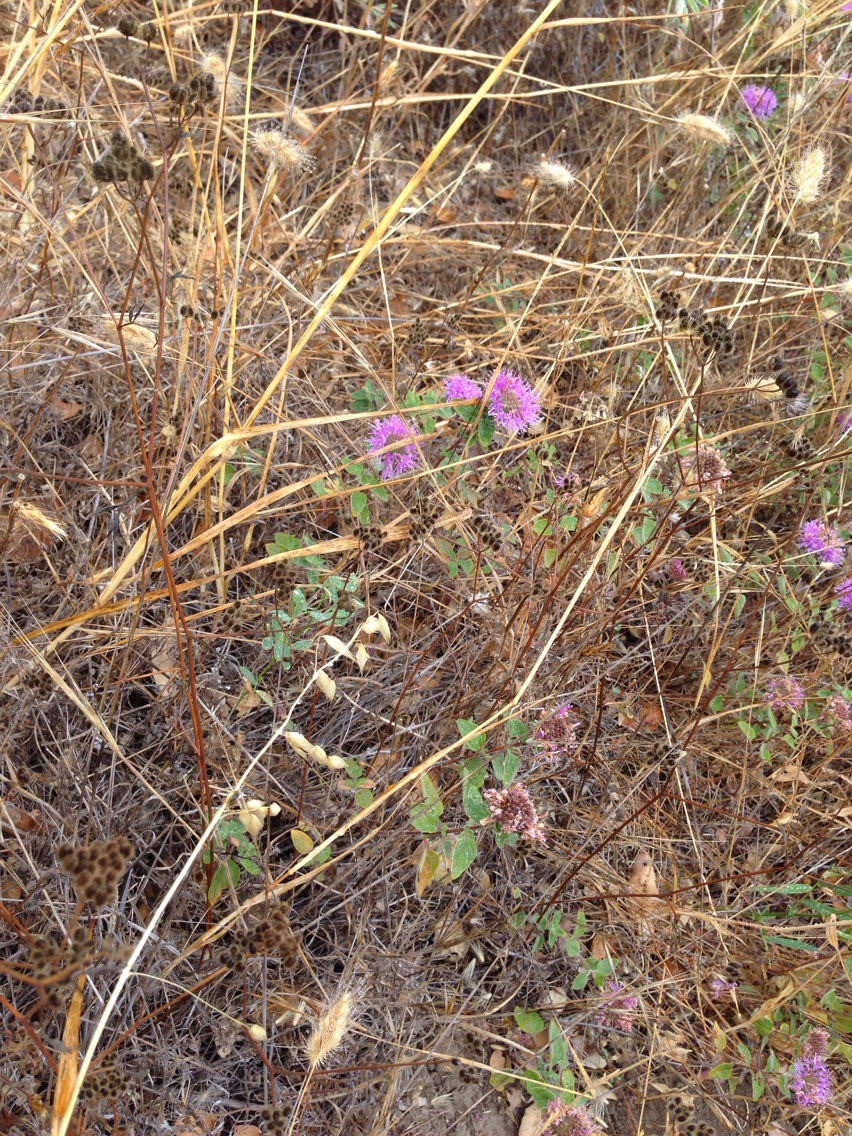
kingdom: Plantae
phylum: Tracheophyta
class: Magnoliopsida
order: Lamiales
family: Lamiaceae
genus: Monardella
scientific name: Monardella odoratissima
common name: Pacific monardella
